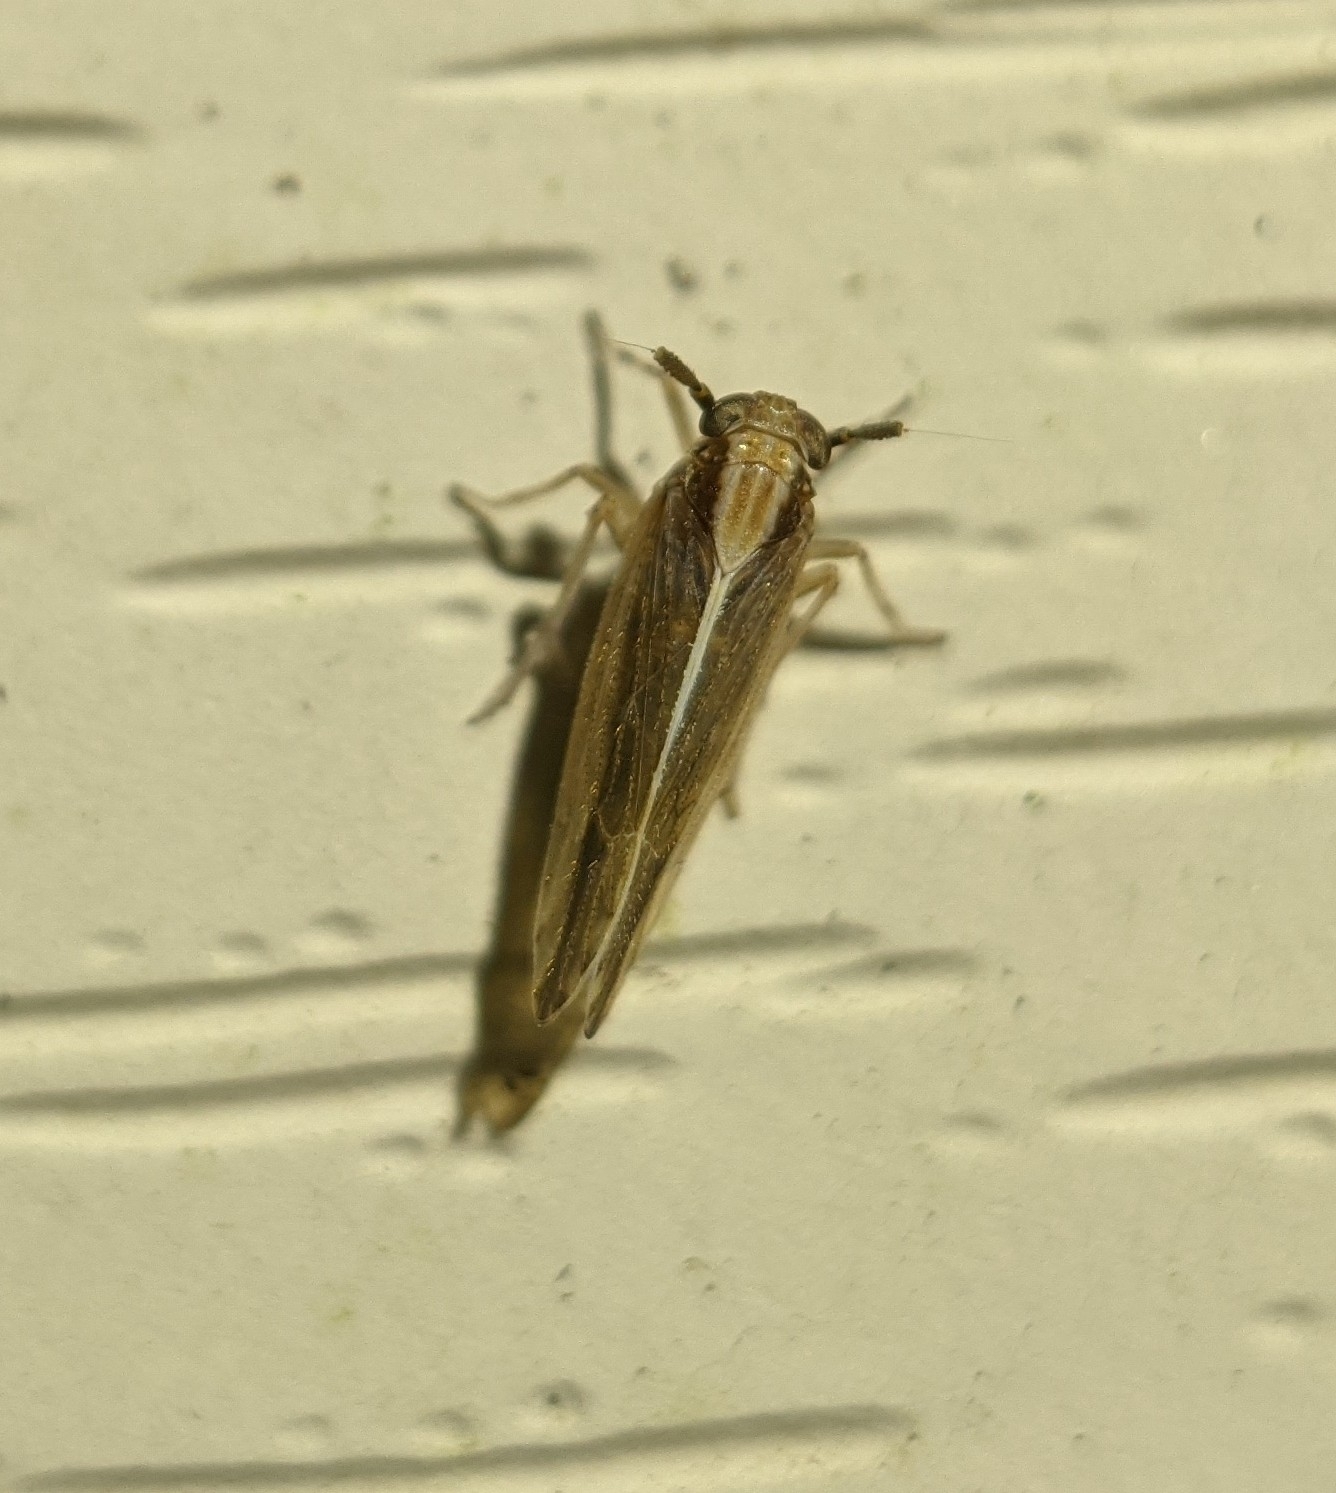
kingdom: Animalia
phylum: Arthropoda
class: Insecta
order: Hemiptera
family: Delphacidae
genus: Perkinsiella
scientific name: Perkinsiella saccharicida
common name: Sugarcane leafhopper
